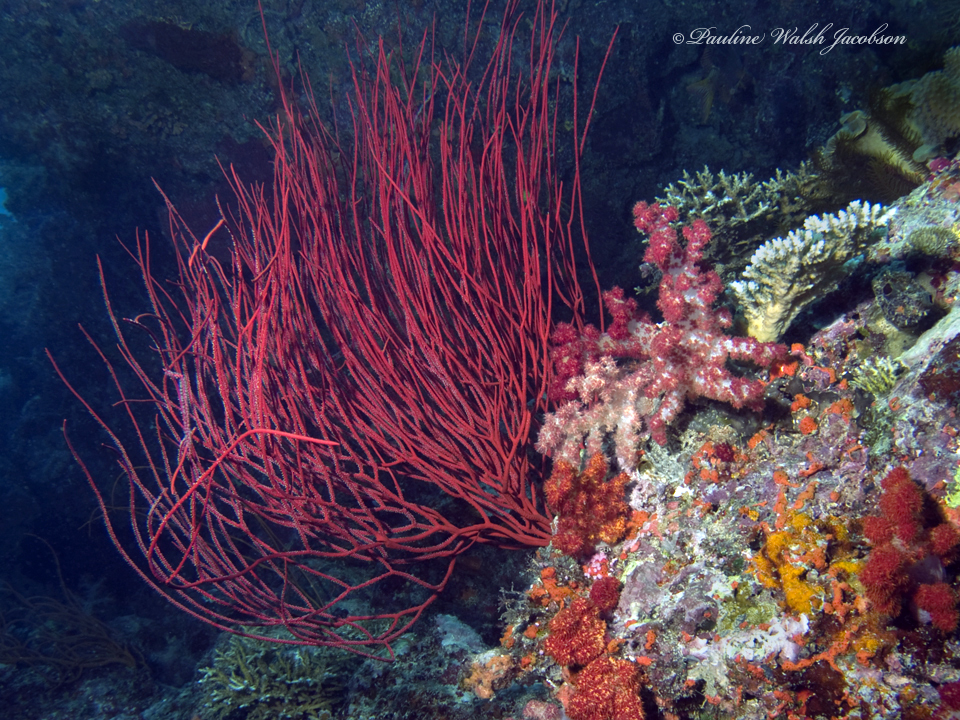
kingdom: Animalia
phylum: Cnidaria
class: Anthozoa
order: Scleralcyonacea
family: Ellisellidae
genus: Ellisella
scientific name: Ellisella ceratophyta
